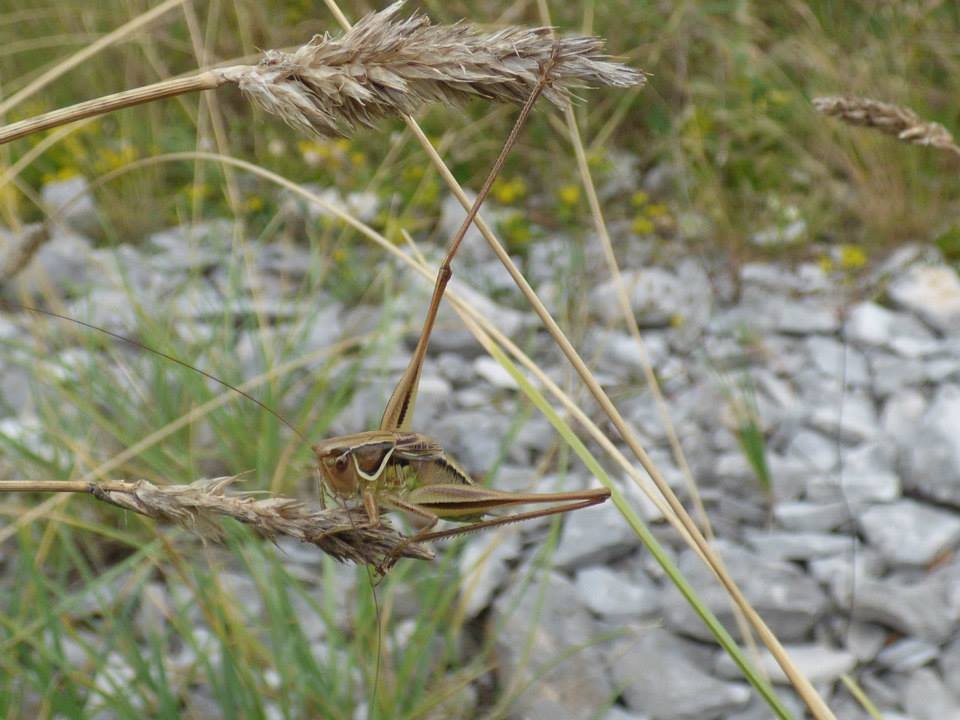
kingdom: Animalia
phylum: Arthropoda
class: Insecta
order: Orthoptera
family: Tettigoniidae
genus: Modestana
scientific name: Modestana modesta
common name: Common modest bush-cricket
